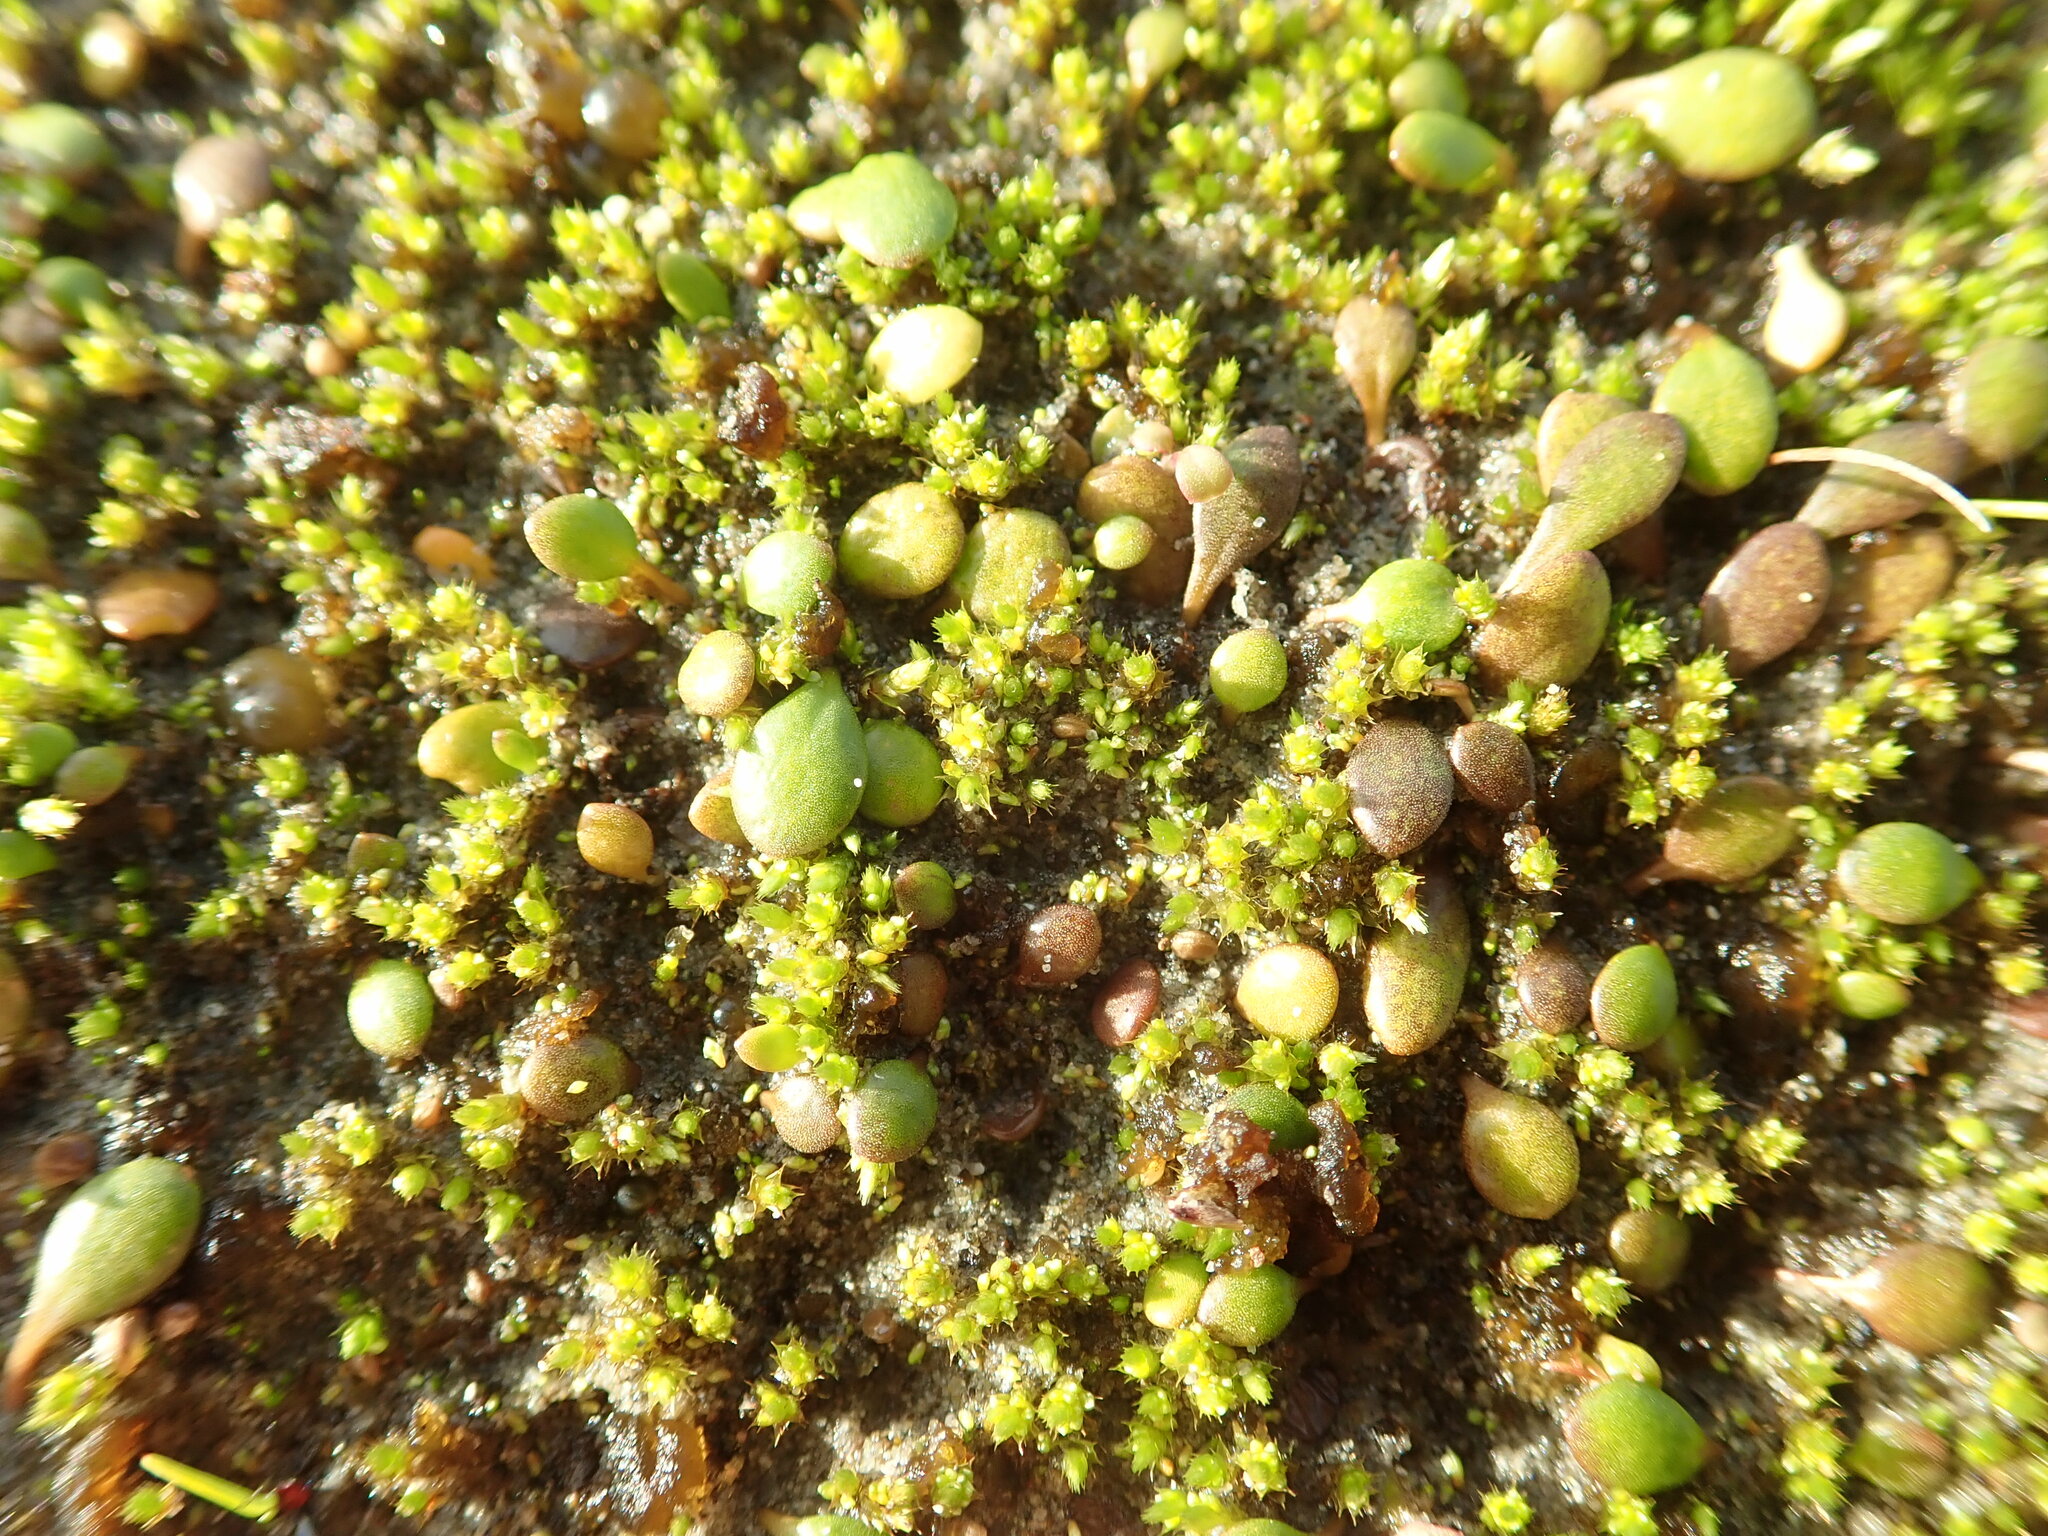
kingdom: Plantae
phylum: Tracheophyta
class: Magnoliopsida
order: Asterales
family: Goodeniaceae
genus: Goodenia
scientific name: Goodenia heenanii
